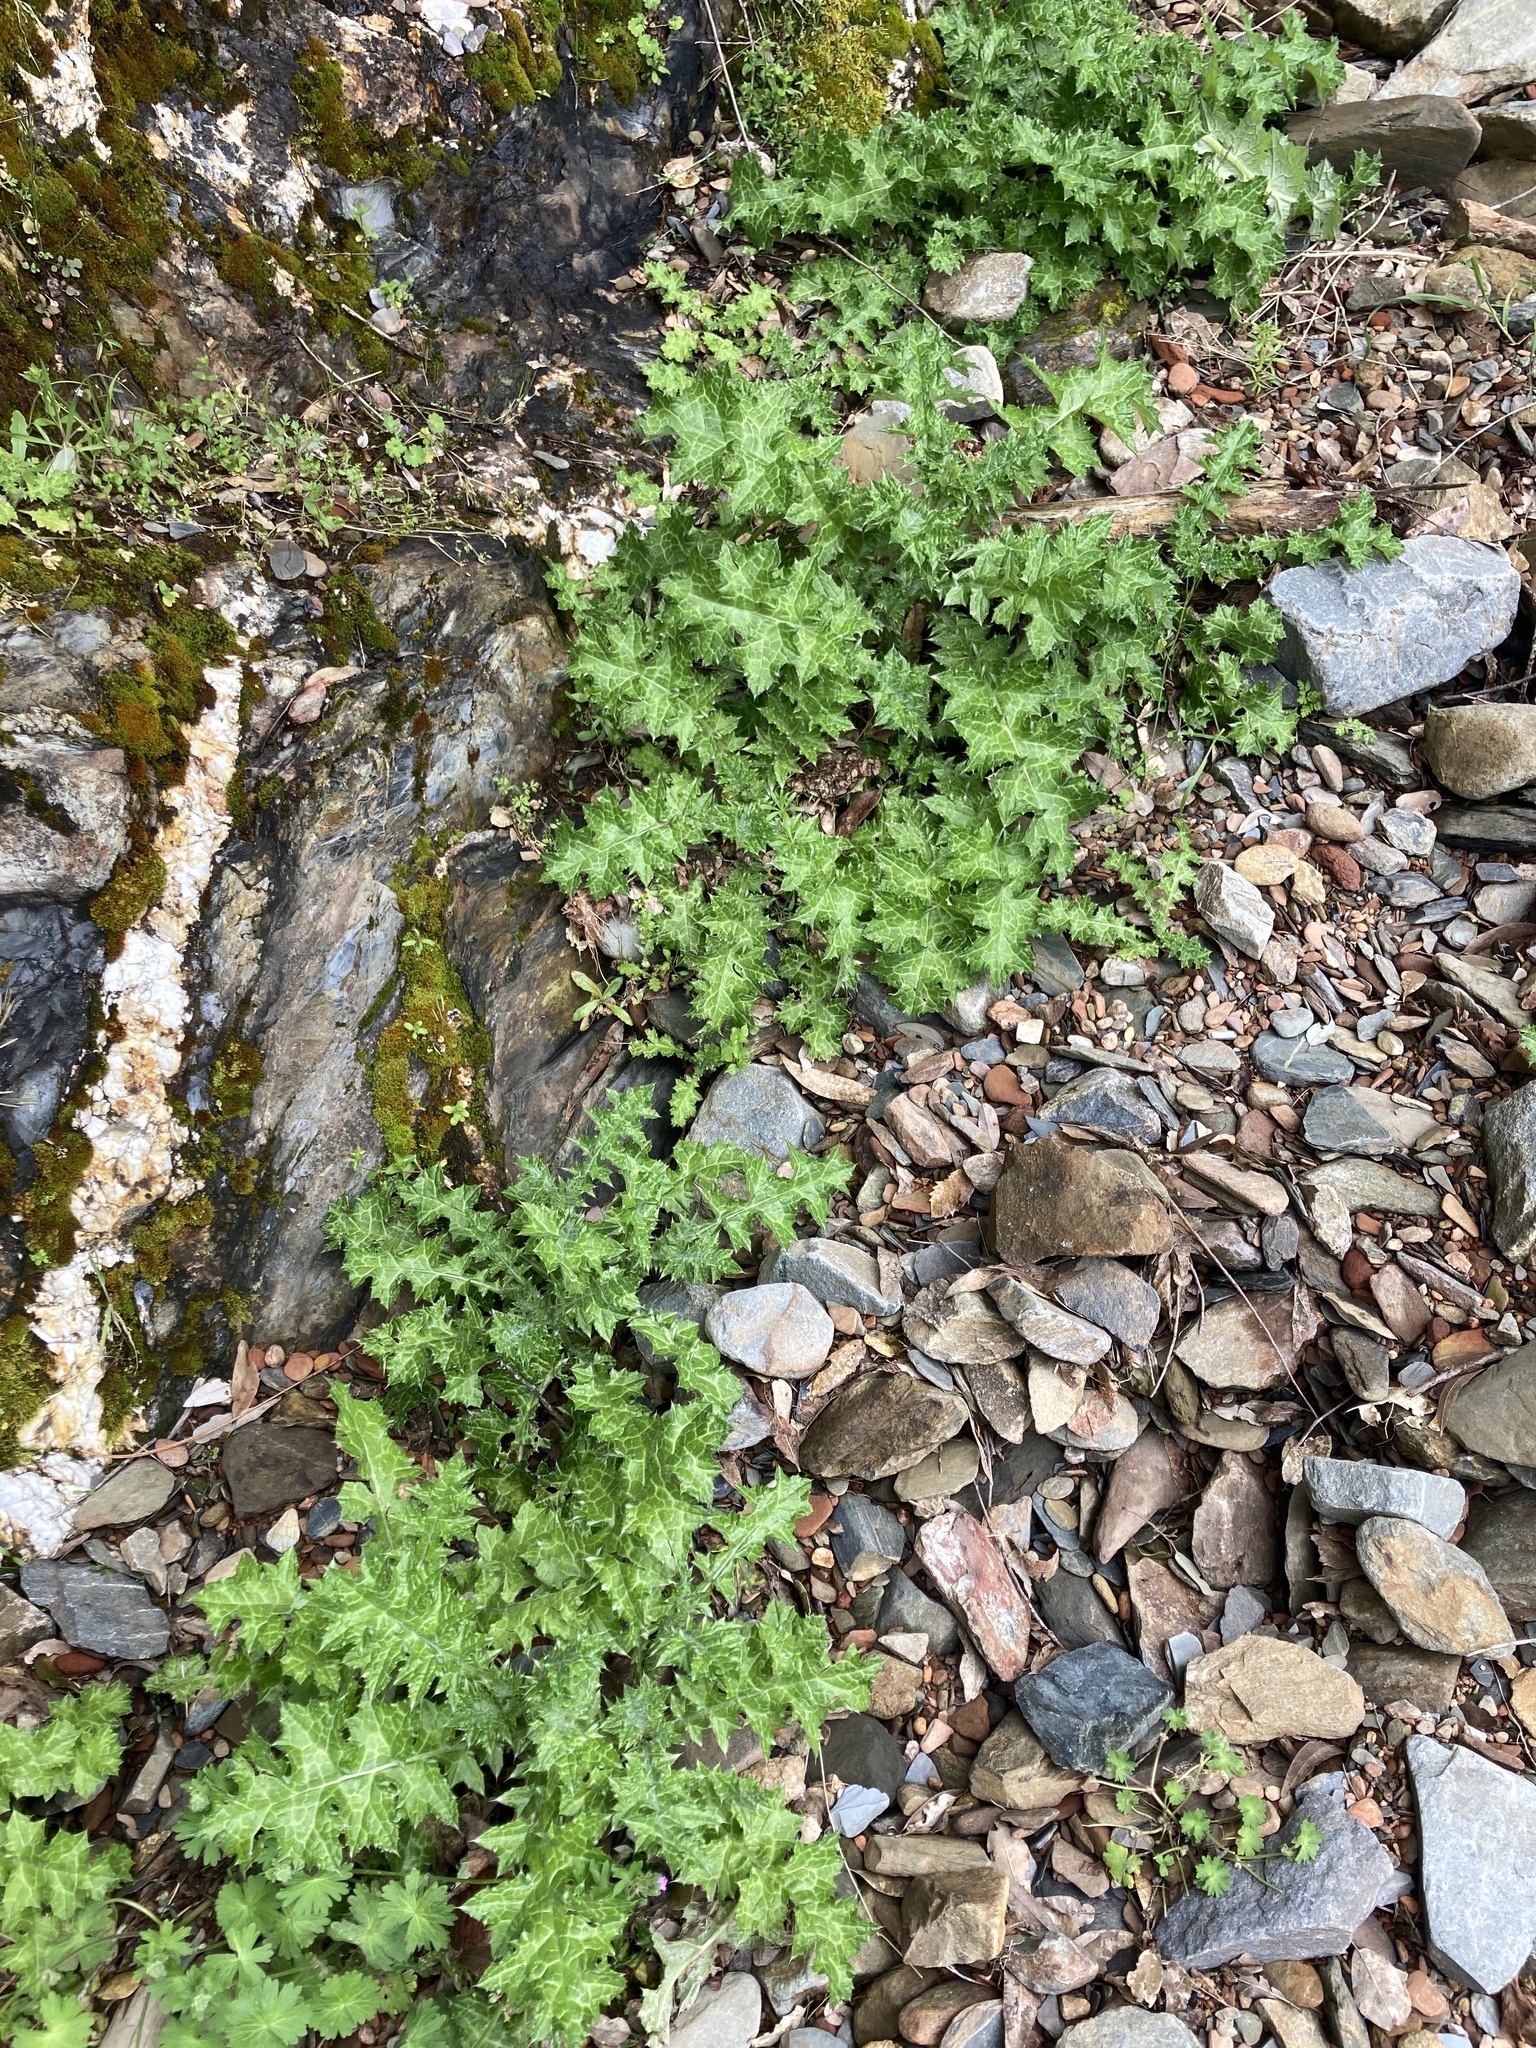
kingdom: Plantae
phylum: Tracheophyta
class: Magnoliopsida
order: Asterales
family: Asteraceae
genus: Carduus
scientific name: Carduus pycnocephalus
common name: Plymouth thistle
